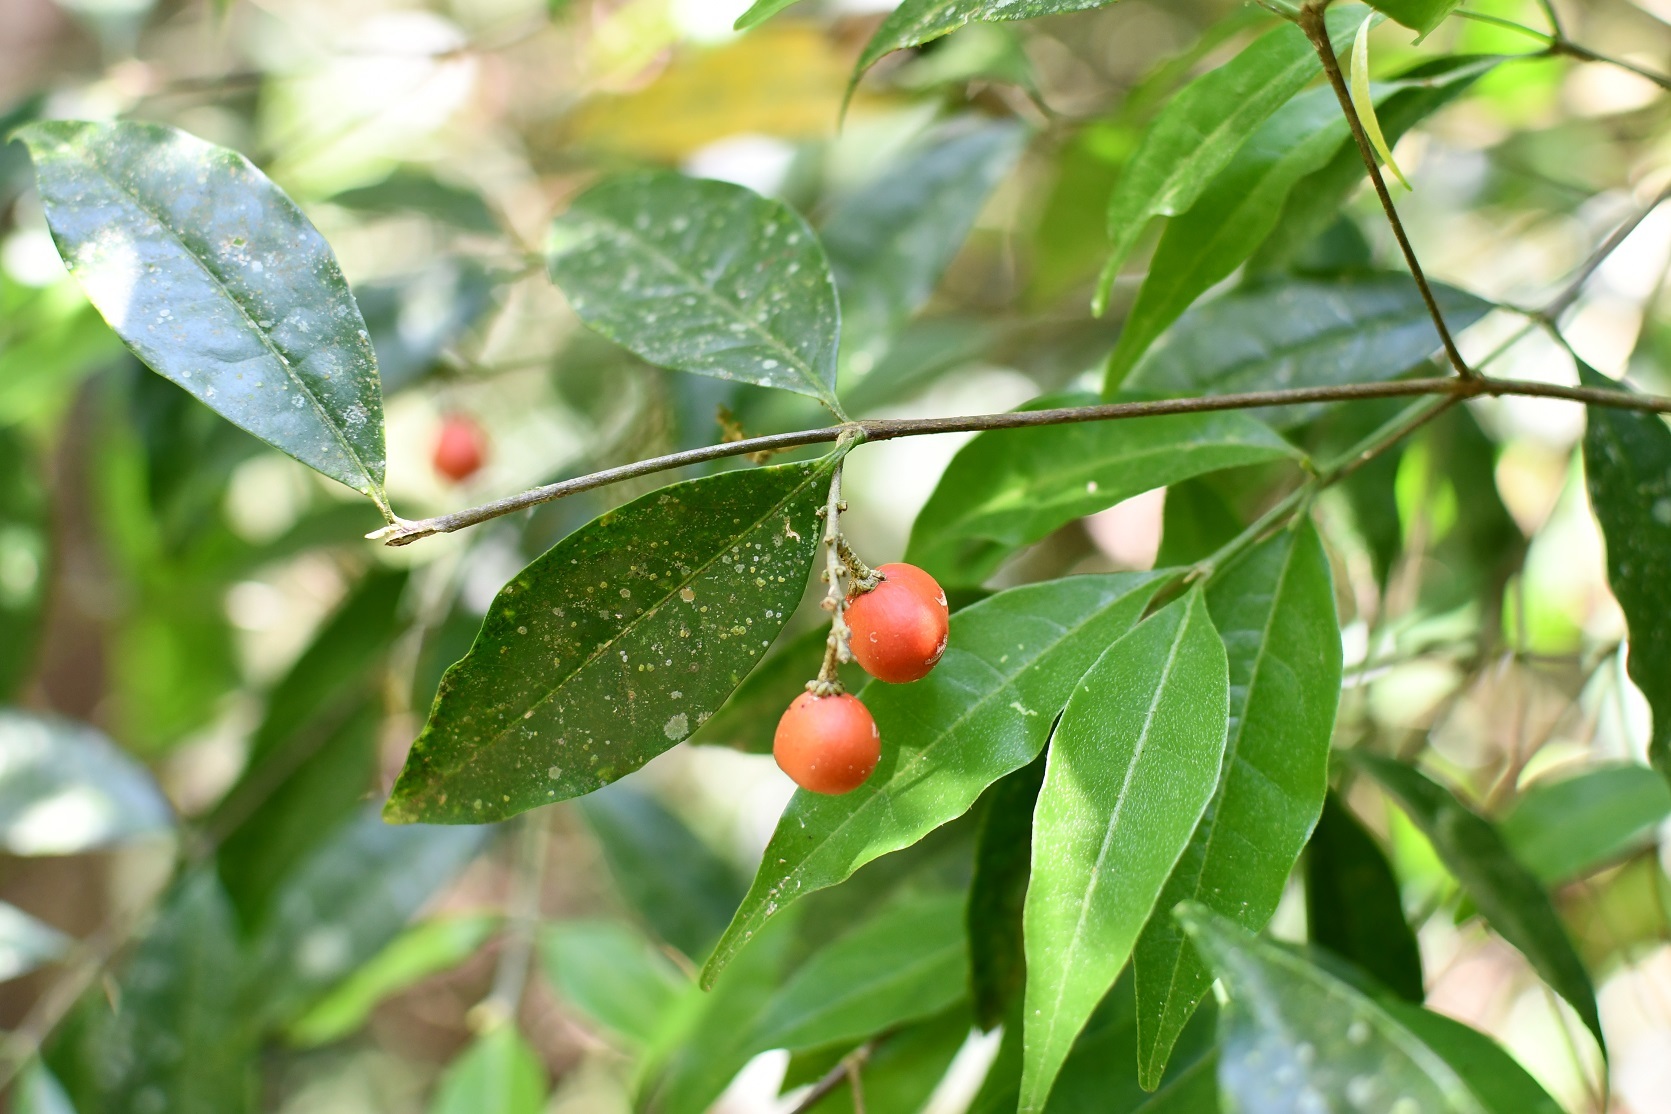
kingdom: Plantae
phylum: Tracheophyta
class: Magnoliopsida
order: Malpighiales
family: Malpighiaceae
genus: Bunchosia
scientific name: Bunchosia biocellata
